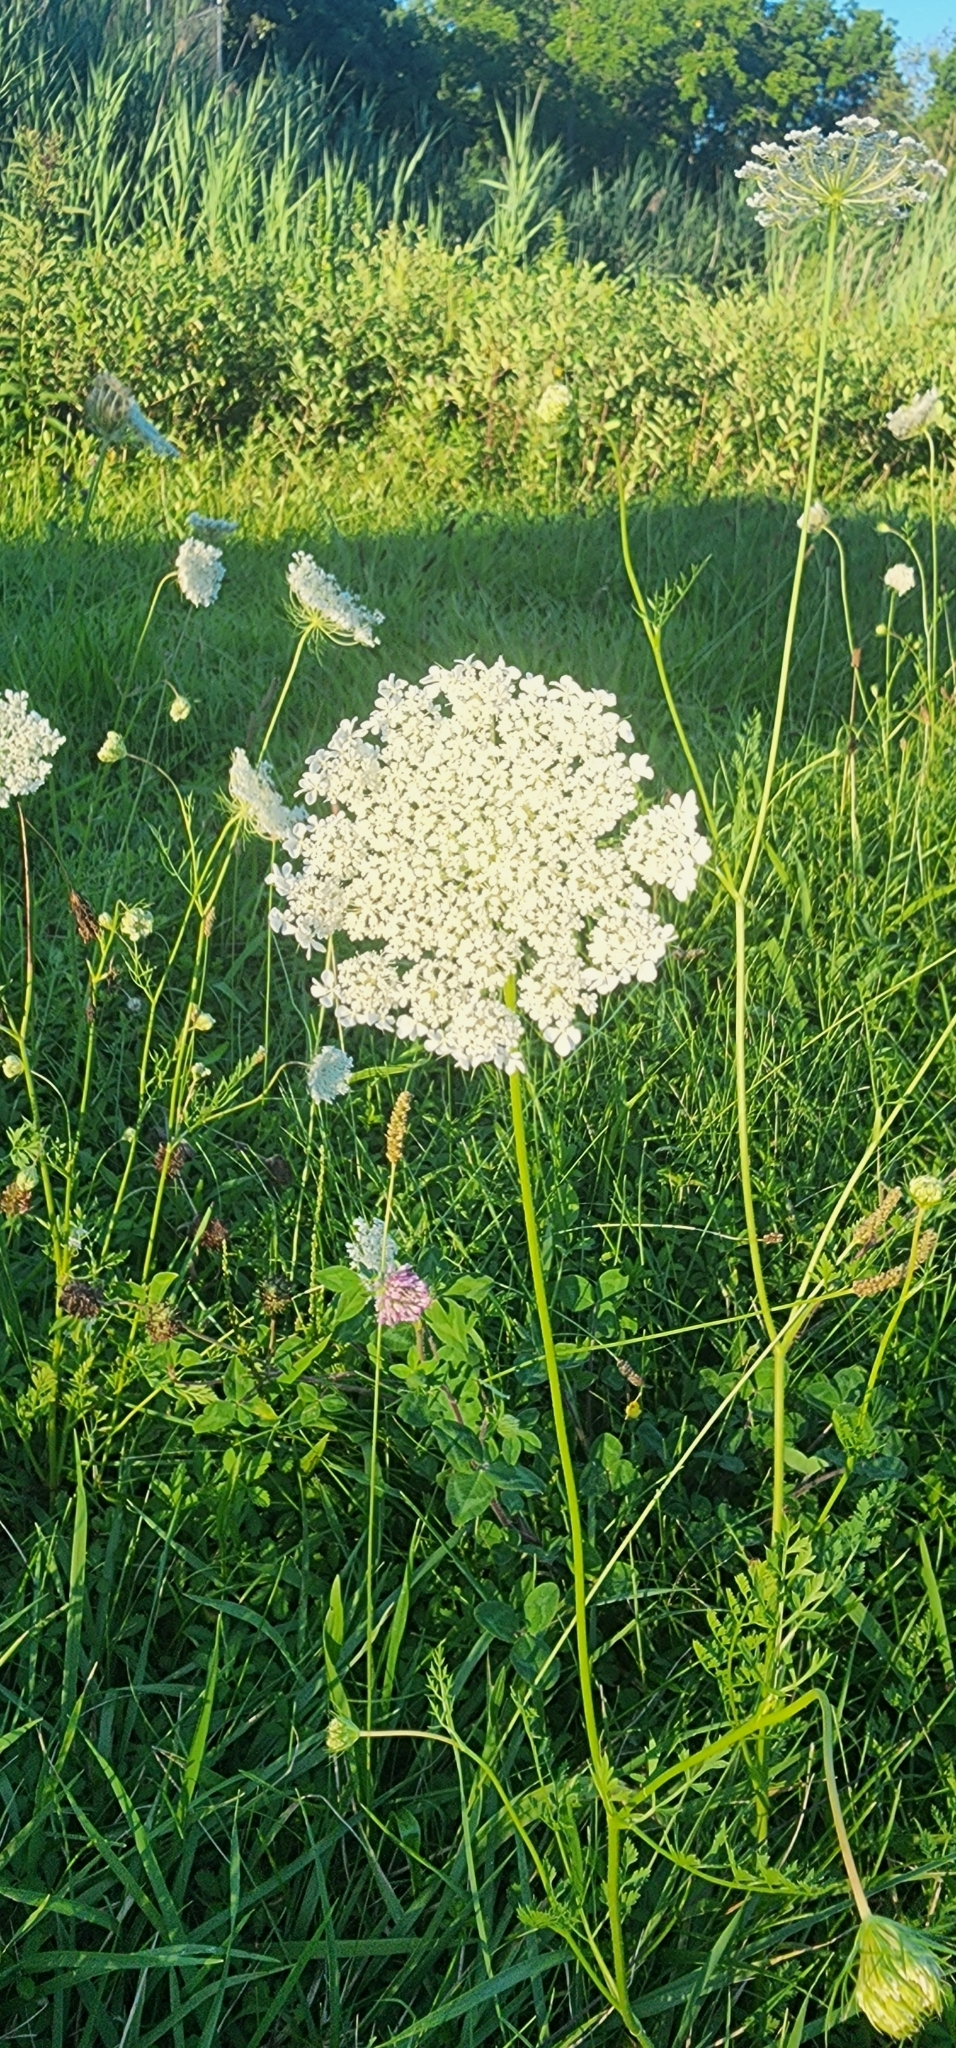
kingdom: Plantae
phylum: Tracheophyta
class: Magnoliopsida
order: Apiales
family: Apiaceae
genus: Daucus
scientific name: Daucus carota
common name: Wild carrot
